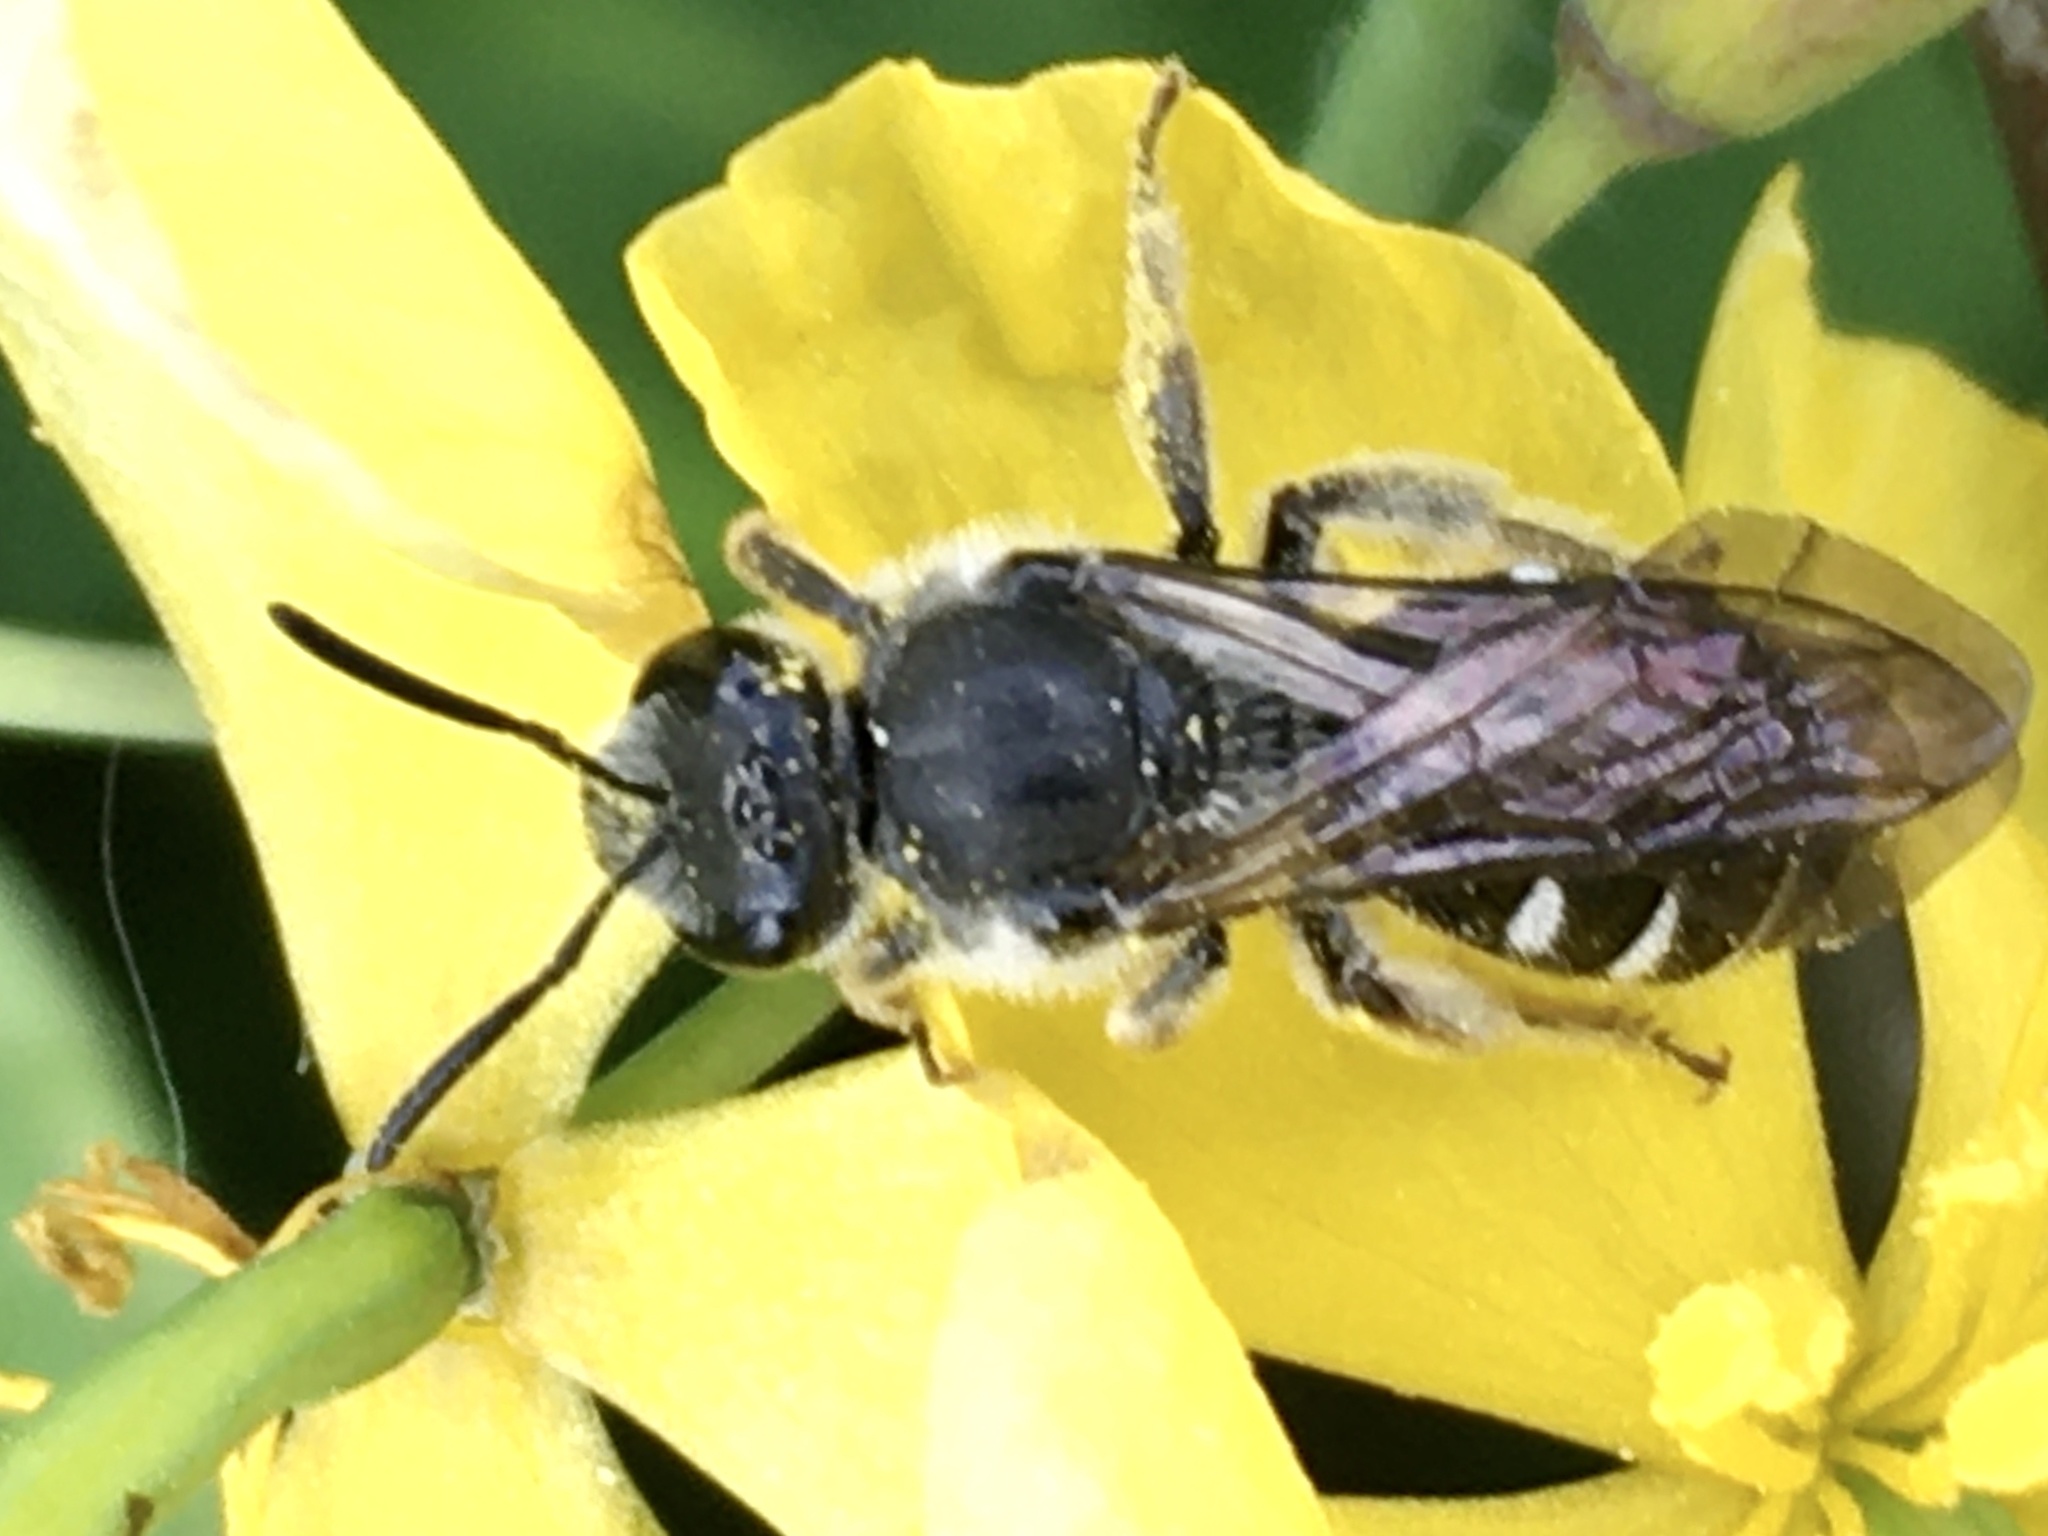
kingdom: Animalia
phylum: Arthropoda
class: Insecta
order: Hymenoptera
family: Halictidae
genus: Lasioglossum
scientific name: Lasioglossum sexnotatum
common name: Ashy furrow bee
